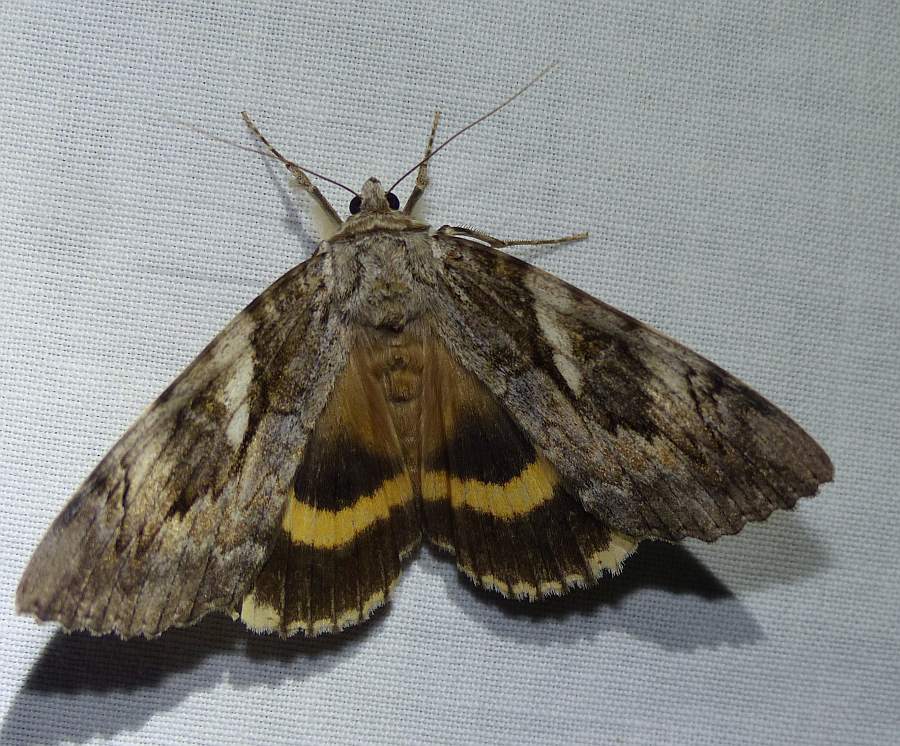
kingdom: Animalia
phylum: Arthropoda
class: Insecta
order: Lepidoptera
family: Erebidae
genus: Catocala
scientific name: Catocala cerogama
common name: Yellow banded underwing
